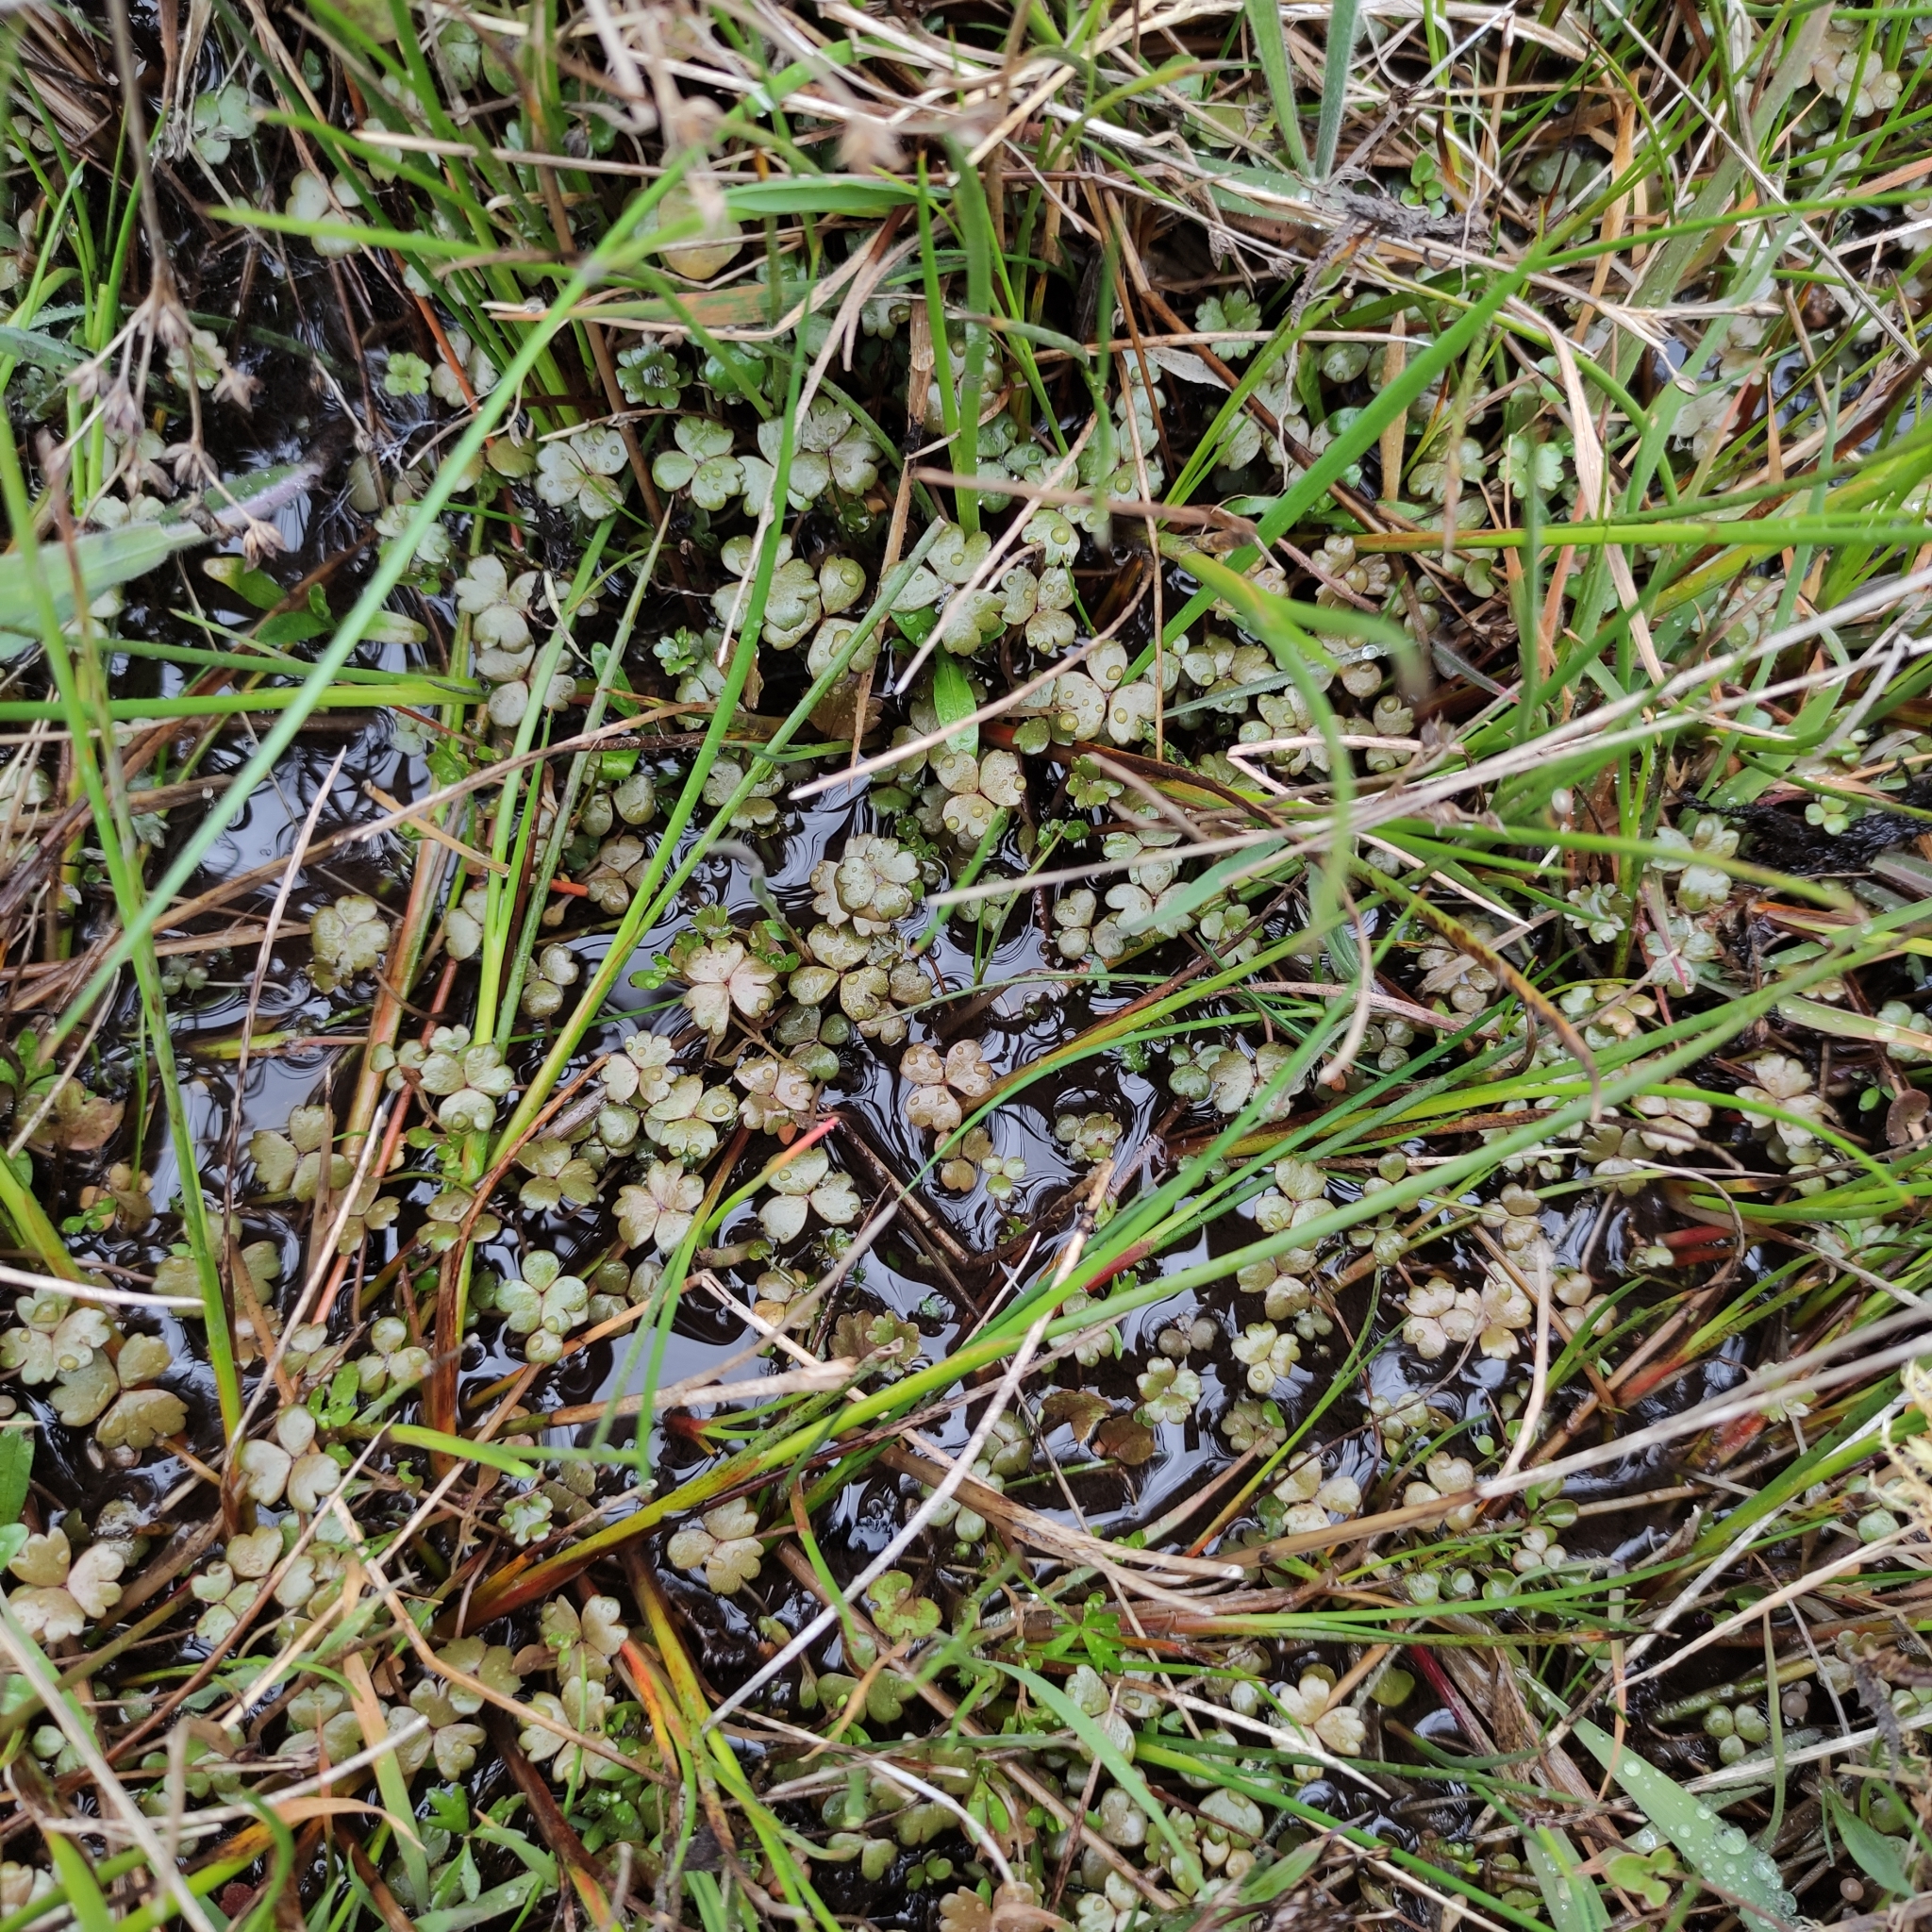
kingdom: Plantae
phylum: Tracheophyta
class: Magnoliopsida
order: Apiales
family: Araliaceae
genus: Hydrocotyle
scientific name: Hydrocotyle sulcata
